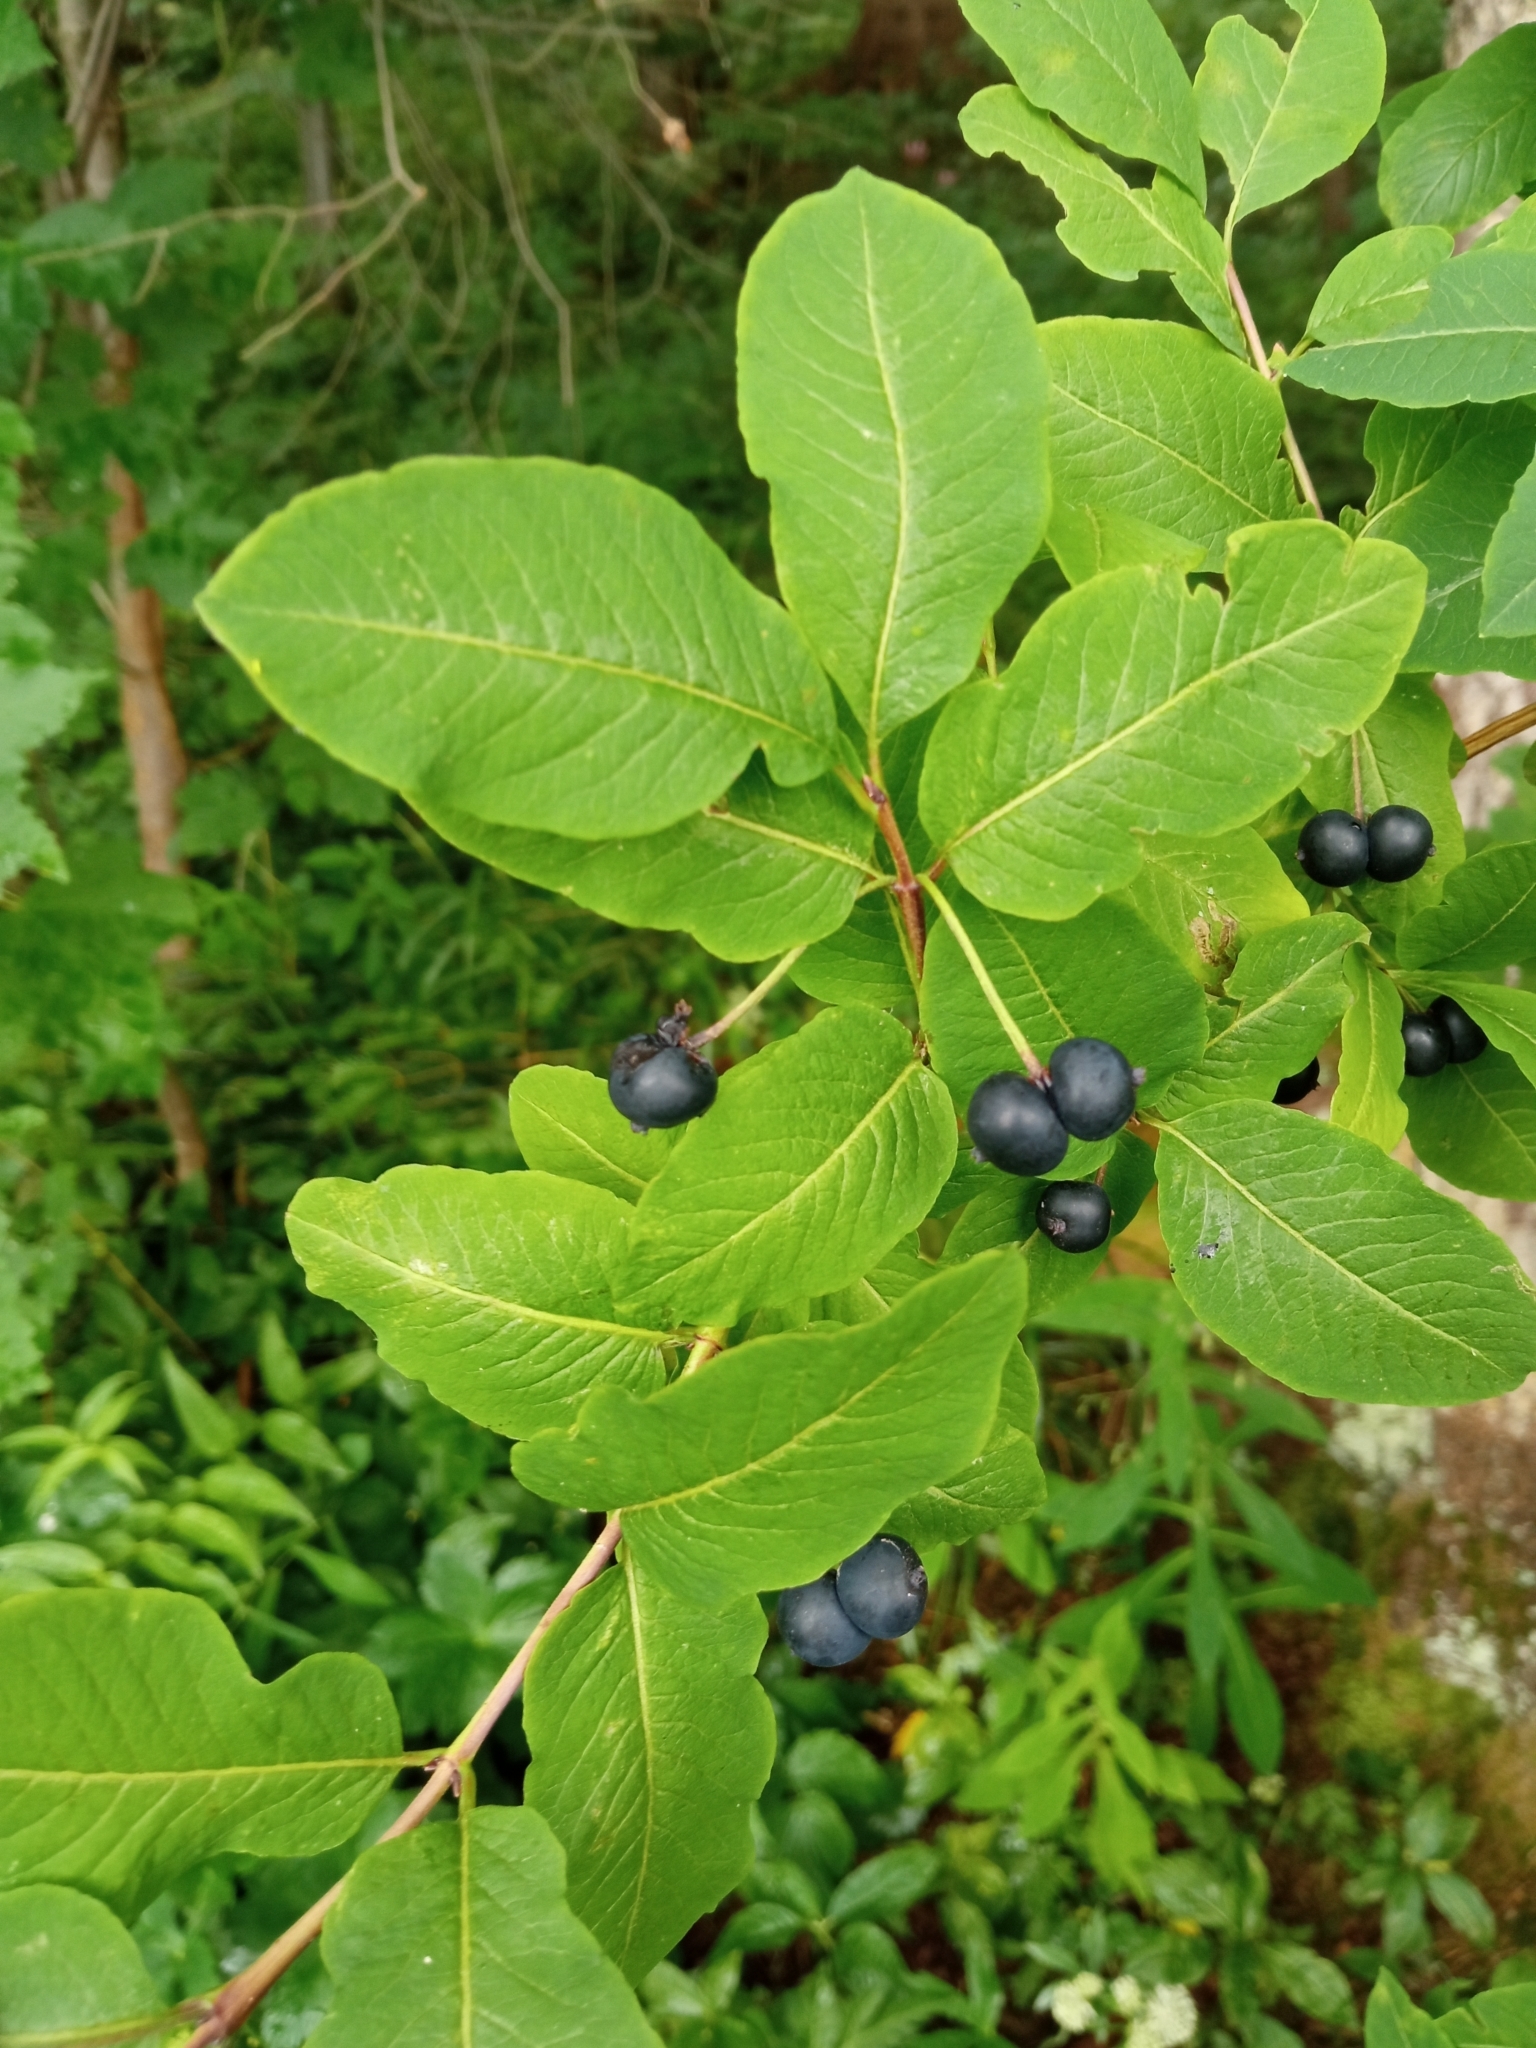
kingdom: Plantae
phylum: Tracheophyta
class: Magnoliopsida
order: Dipsacales
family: Caprifoliaceae
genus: Lonicera
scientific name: Lonicera nigra
